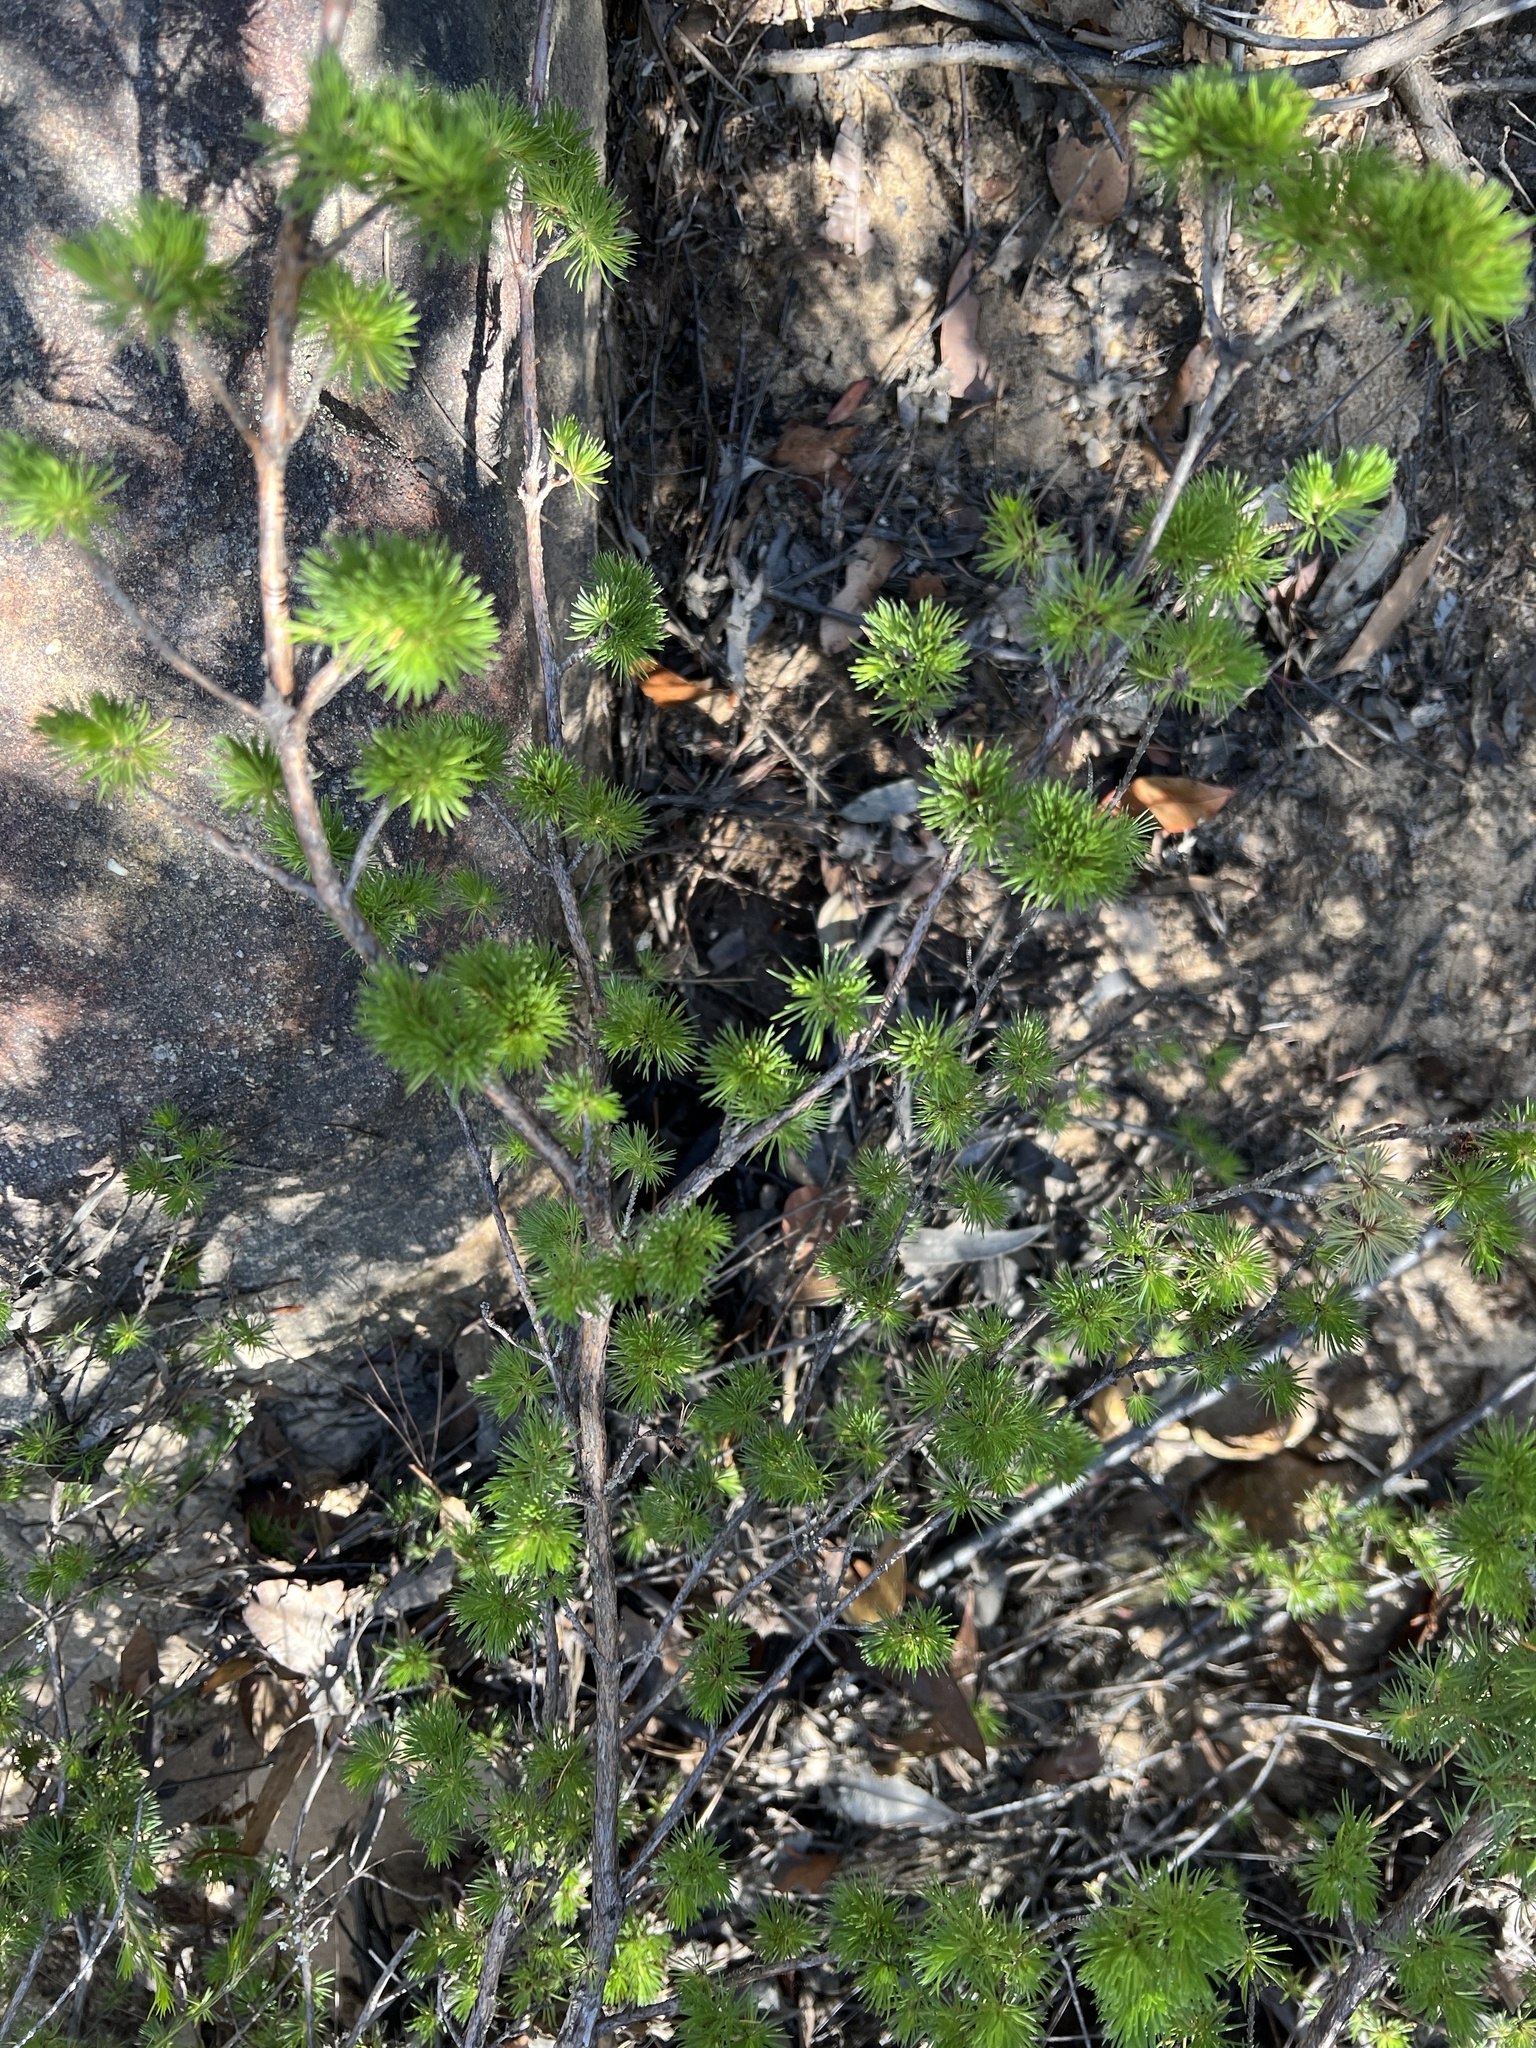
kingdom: Plantae
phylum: Tracheophyta
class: Magnoliopsida
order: Myrtales
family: Myrtaceae
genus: Darwinia
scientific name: Darwinia fascicularis
